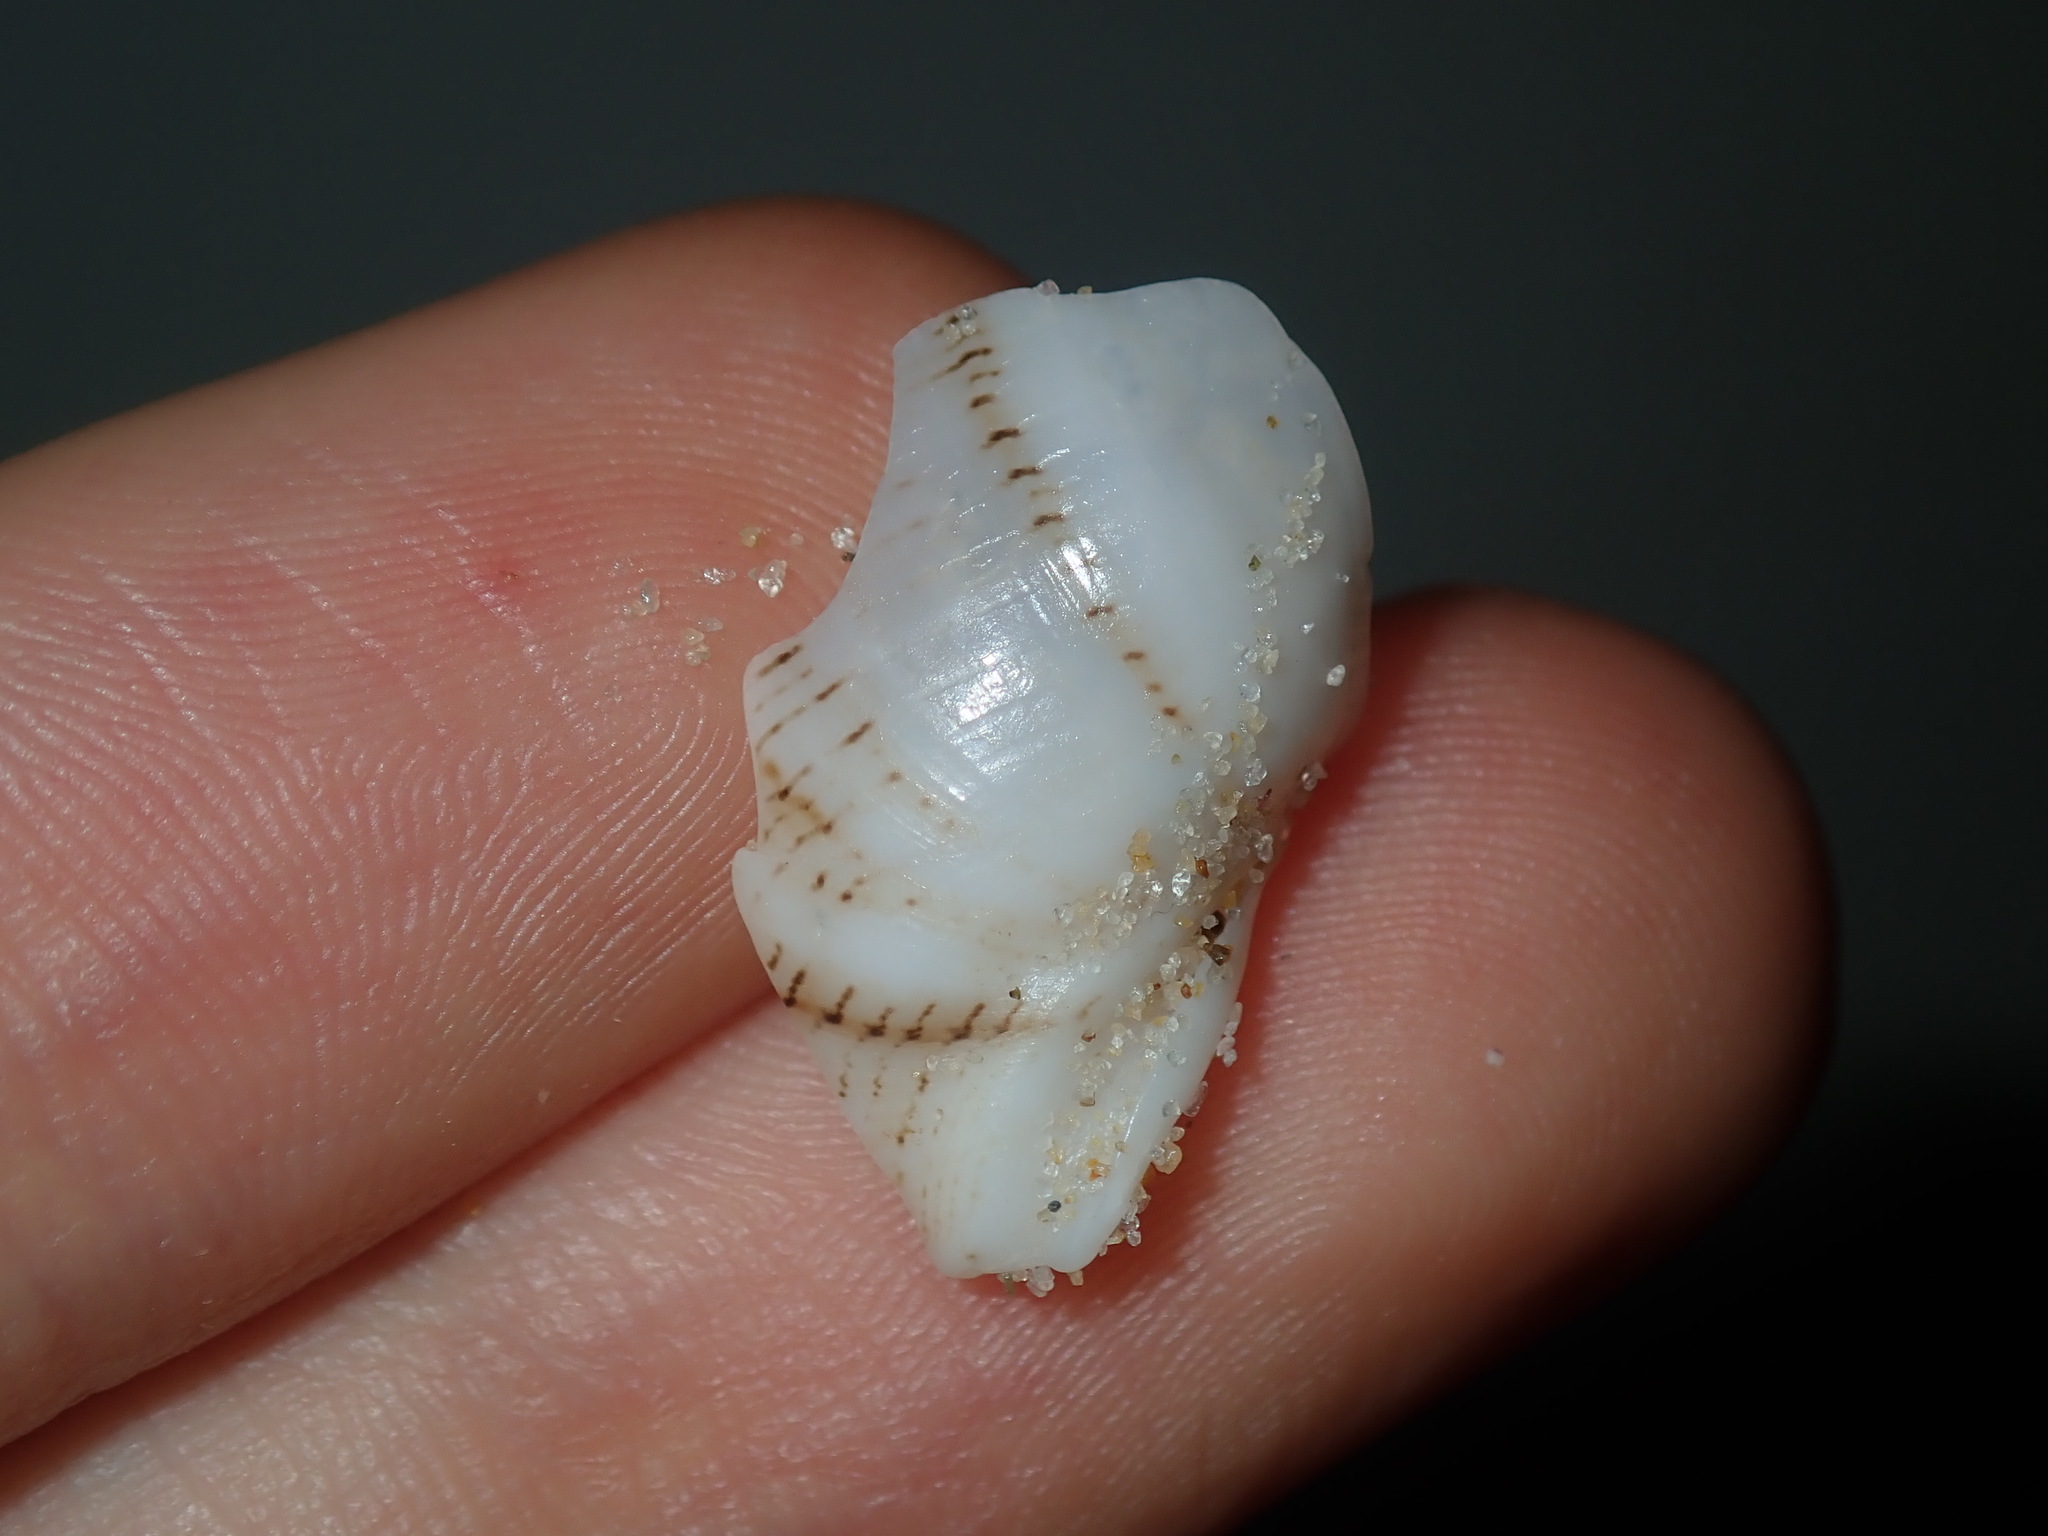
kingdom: Animalia
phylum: Mollusca
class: Gastropoda
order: Cephalaspidea
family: Aplustridae
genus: Hydatina
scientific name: Hydatina physis
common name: Brown-line paperbubble
